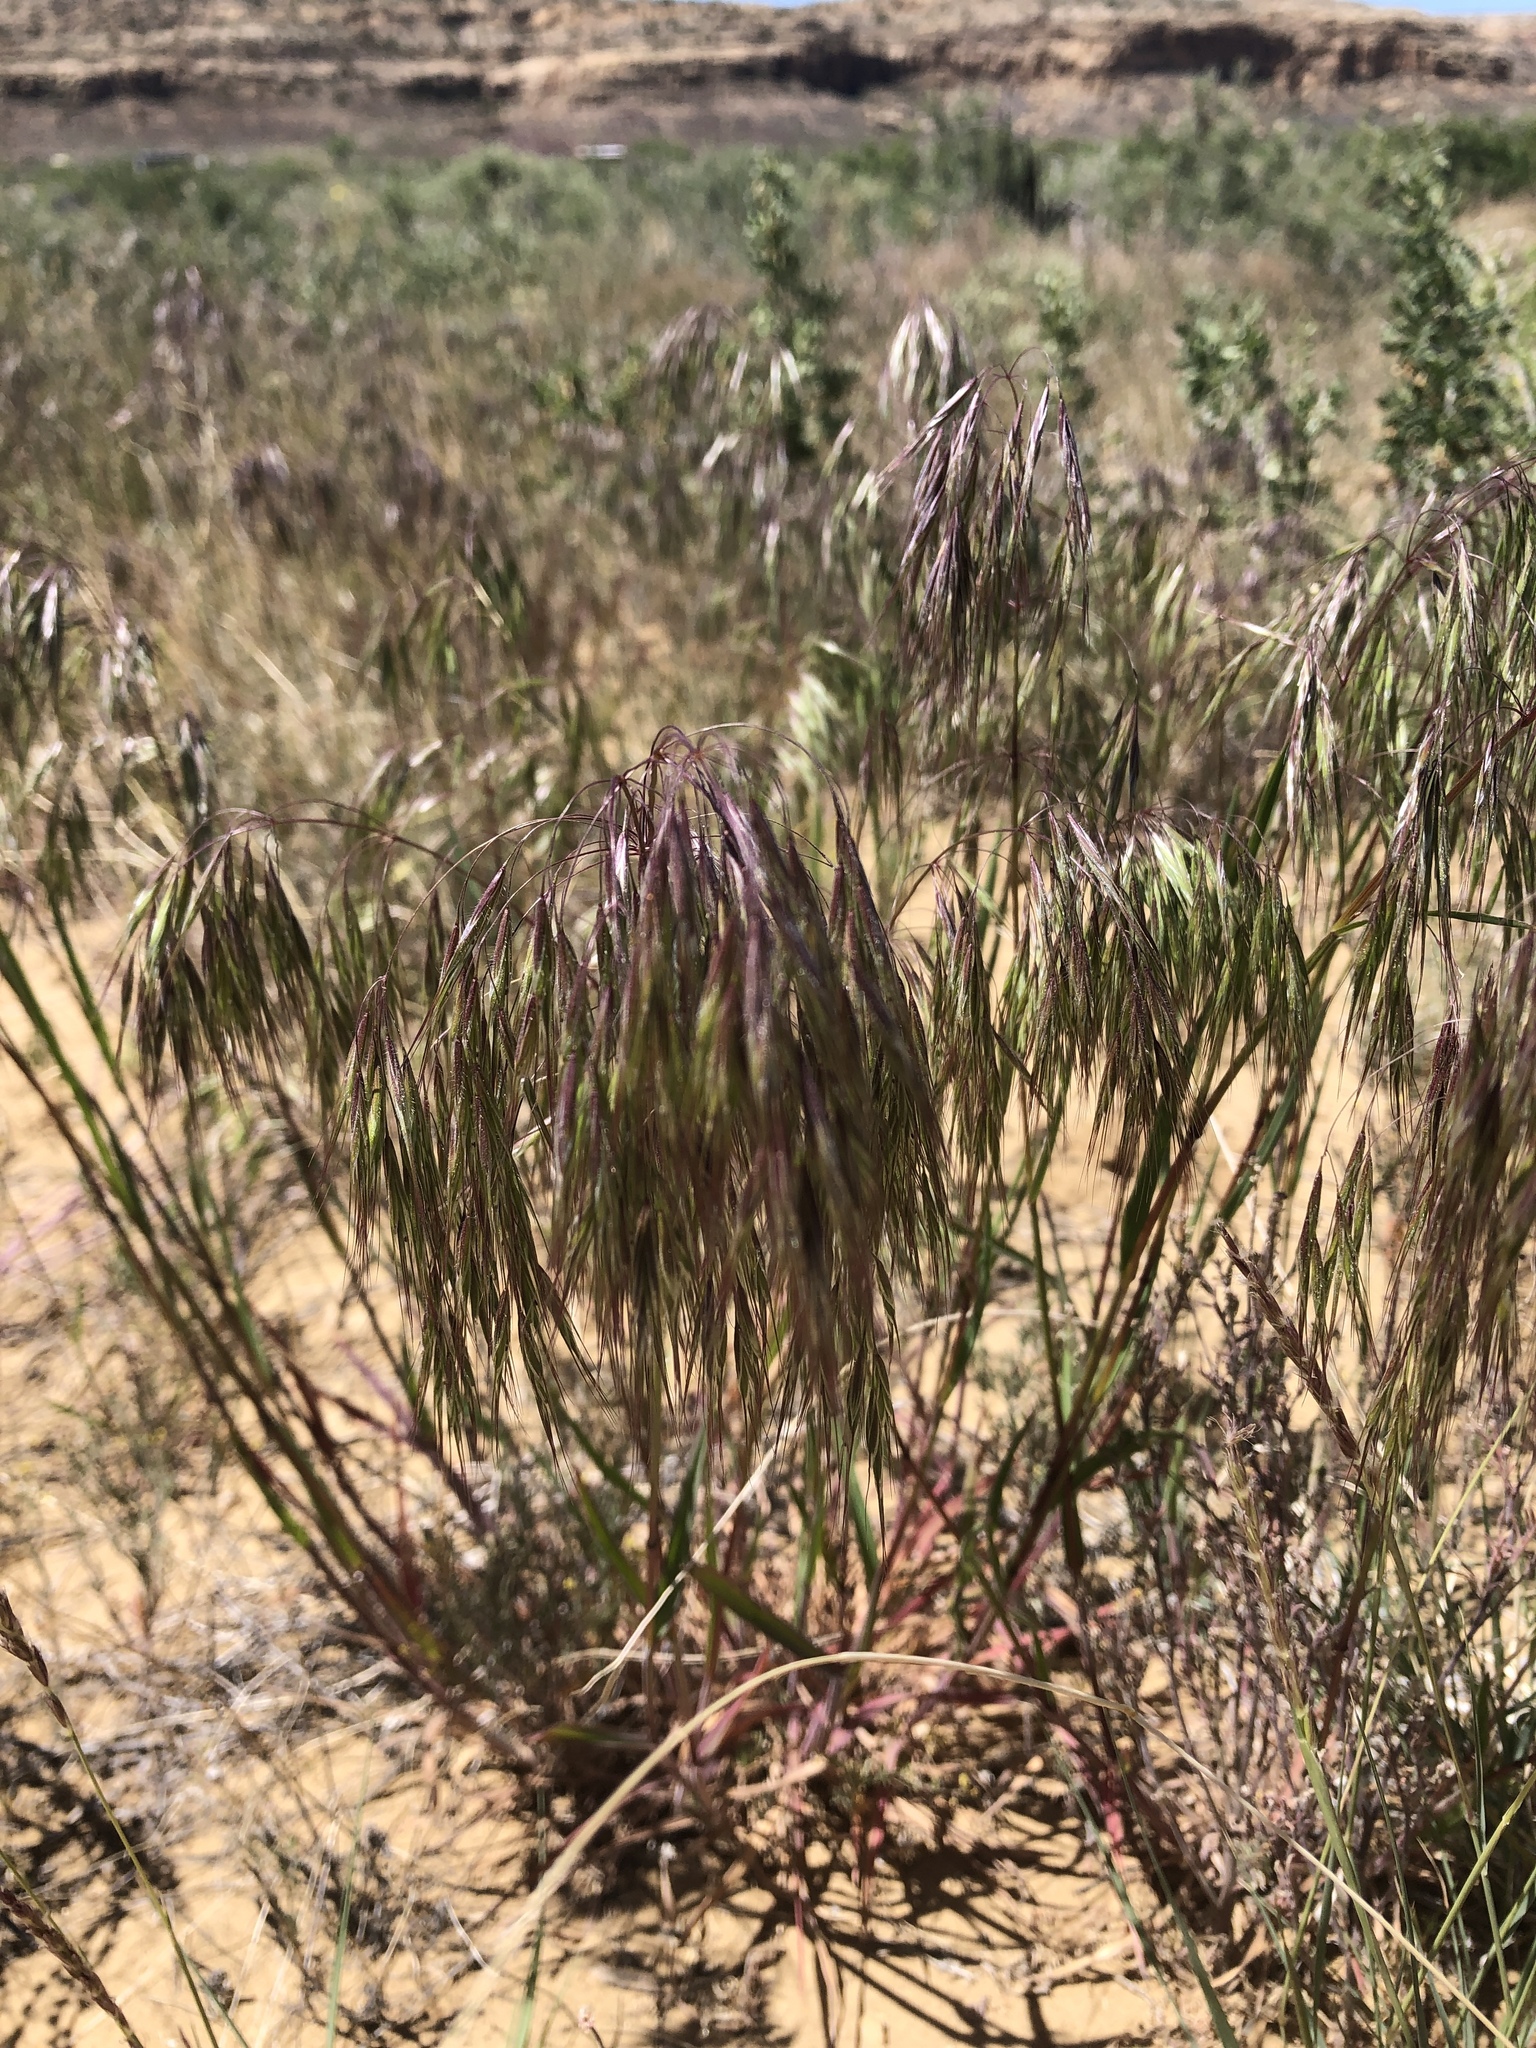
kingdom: Plantae
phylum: Tracheophyta
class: Liliopsida
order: Poales
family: Poaceae
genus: Bromus
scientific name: Bromus tectorum
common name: Cheatgrass
